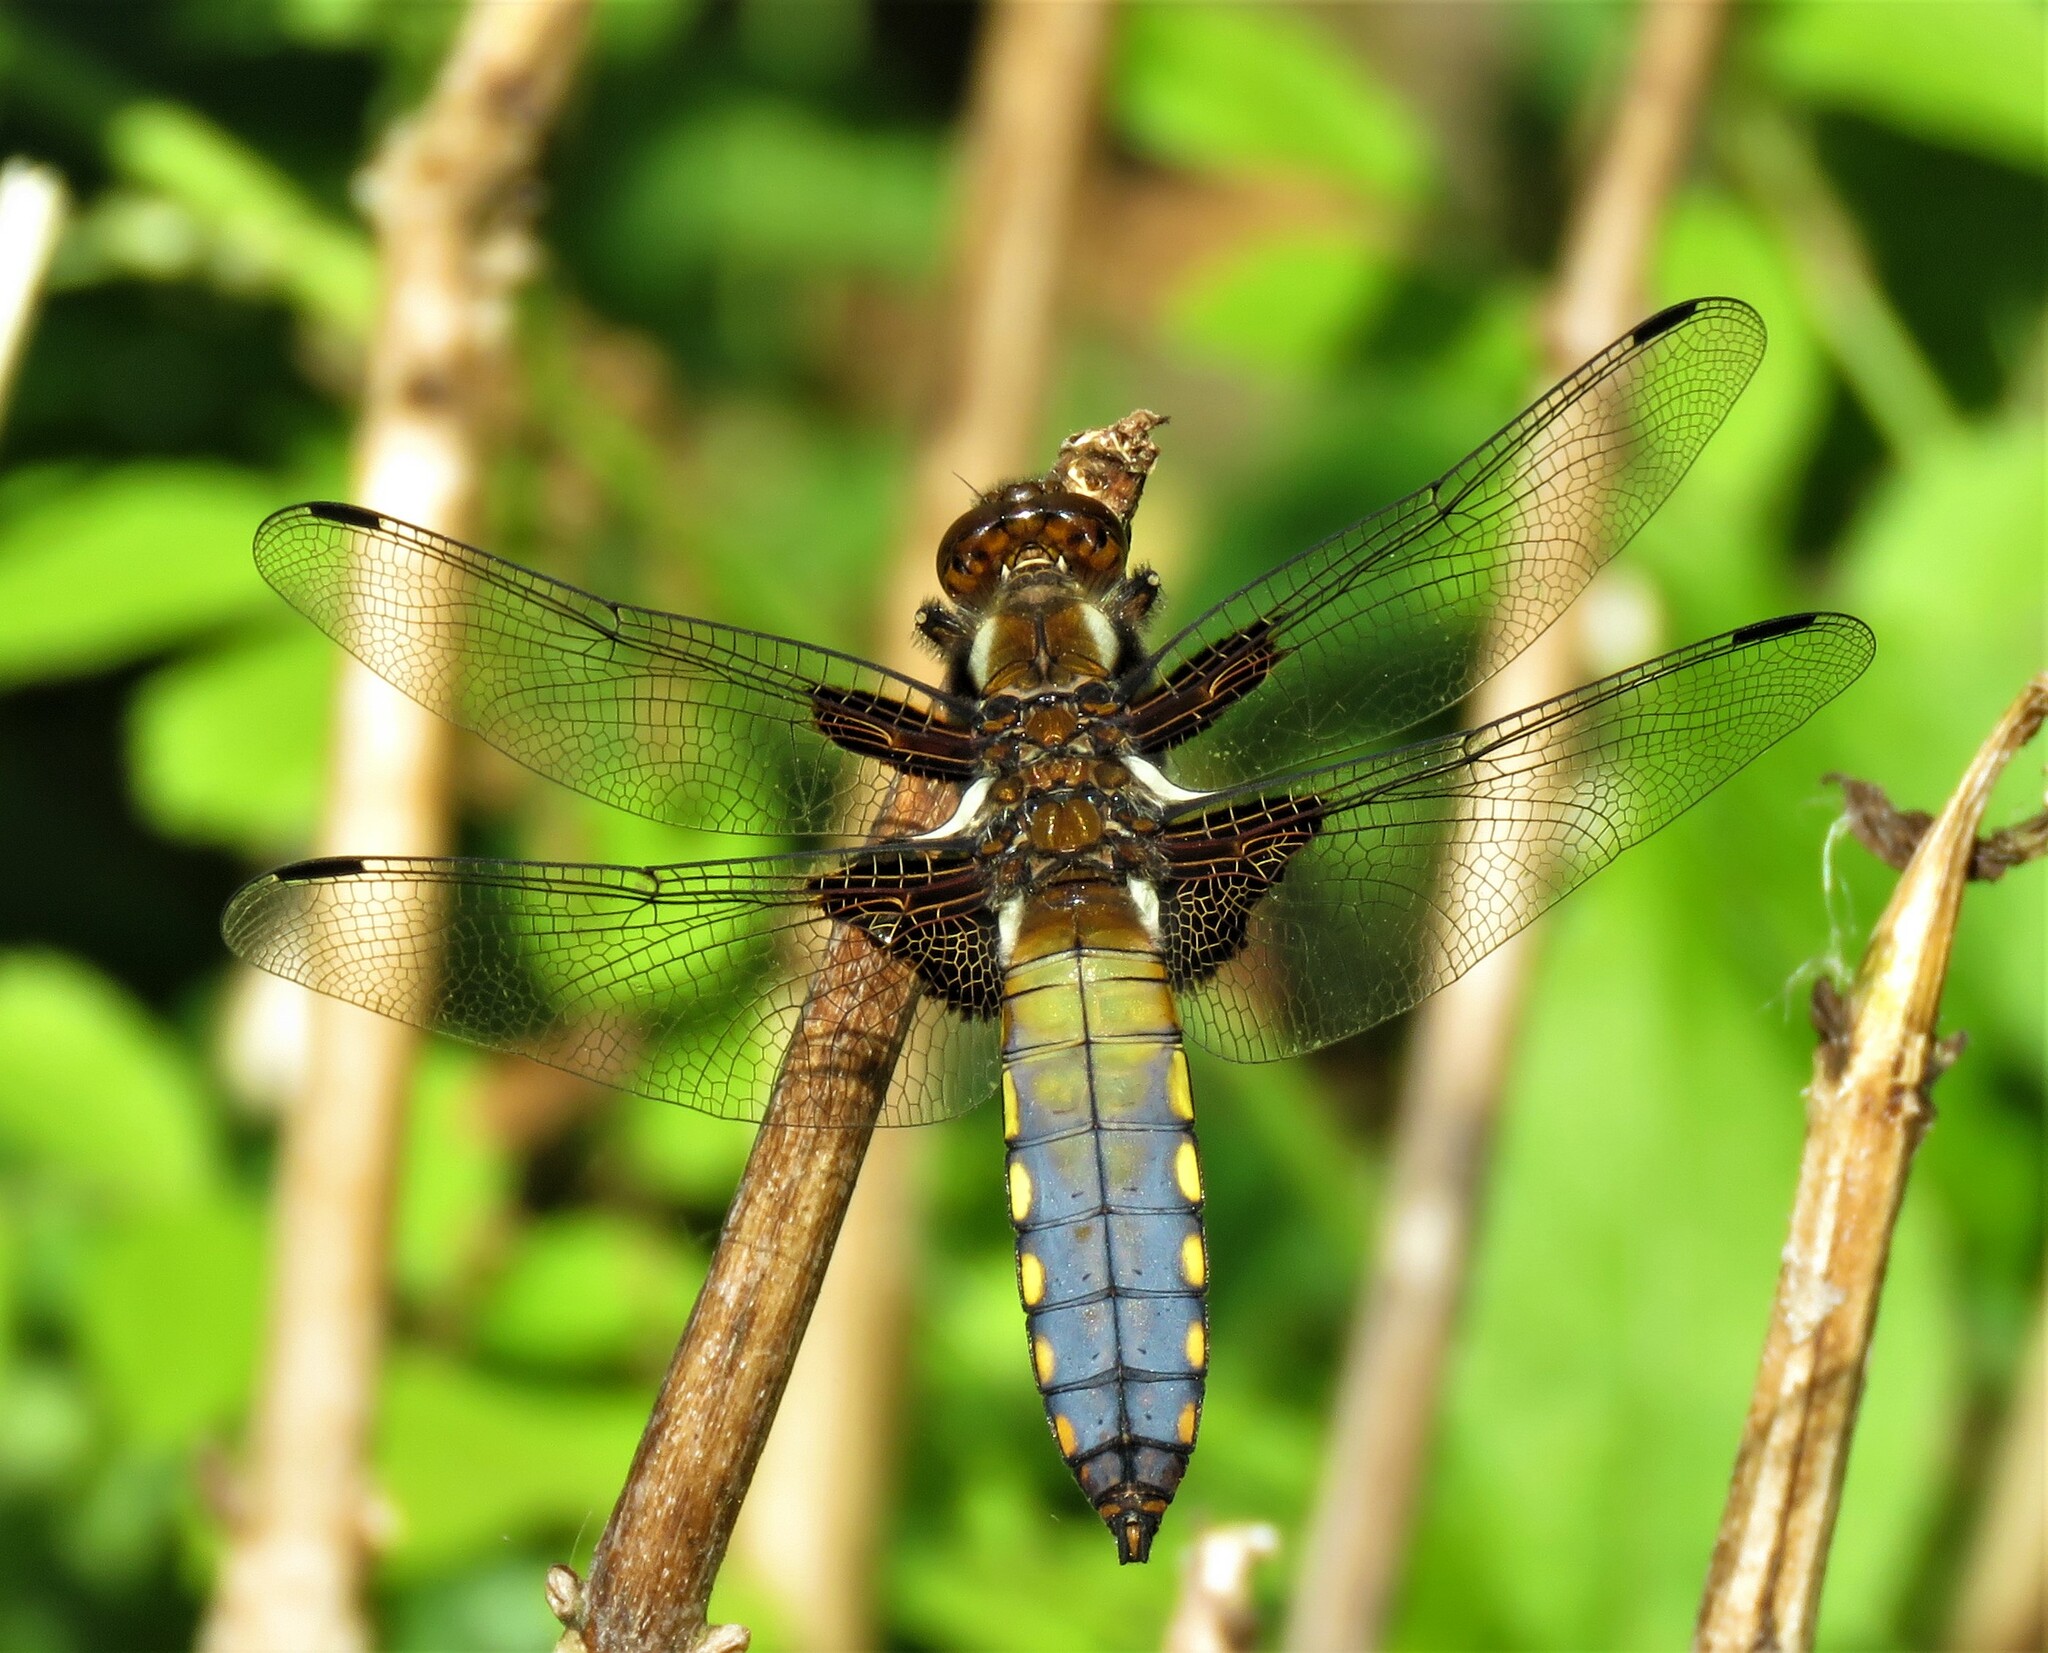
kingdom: Animalia
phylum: Arthropoda
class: Insecta
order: Odonata
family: Libellulidae
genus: Libellula
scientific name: Libellula depressa
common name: Broad-bodied chaser
